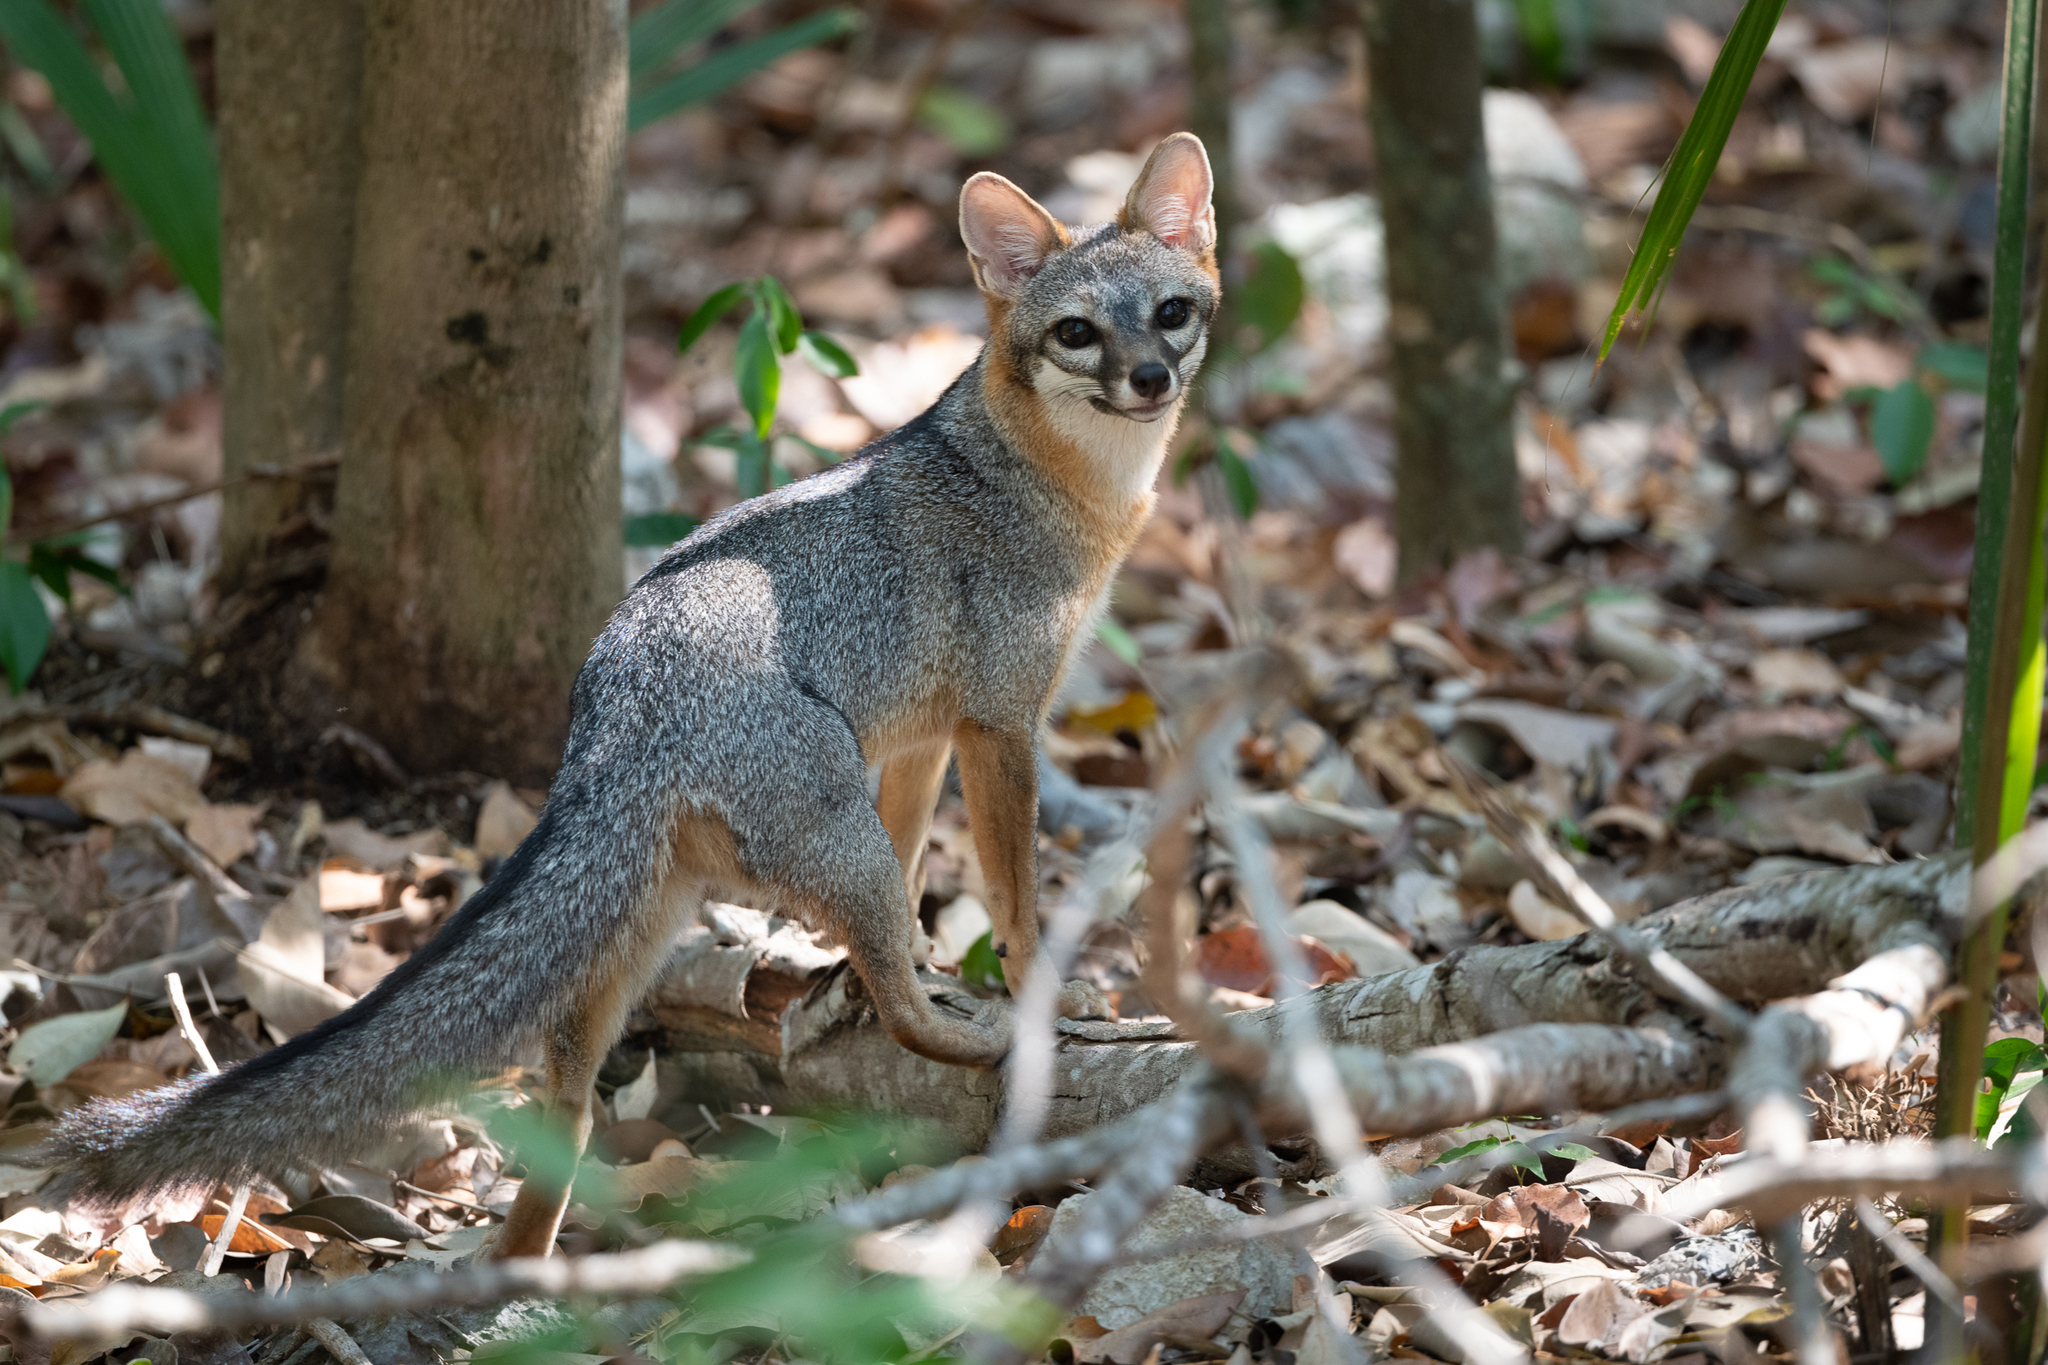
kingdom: Animalia
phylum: Chordata
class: Mammalia
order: Carnivora
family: Canidae
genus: Urocyon
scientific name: Urocyon cinereoargenteus
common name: Gray fox
